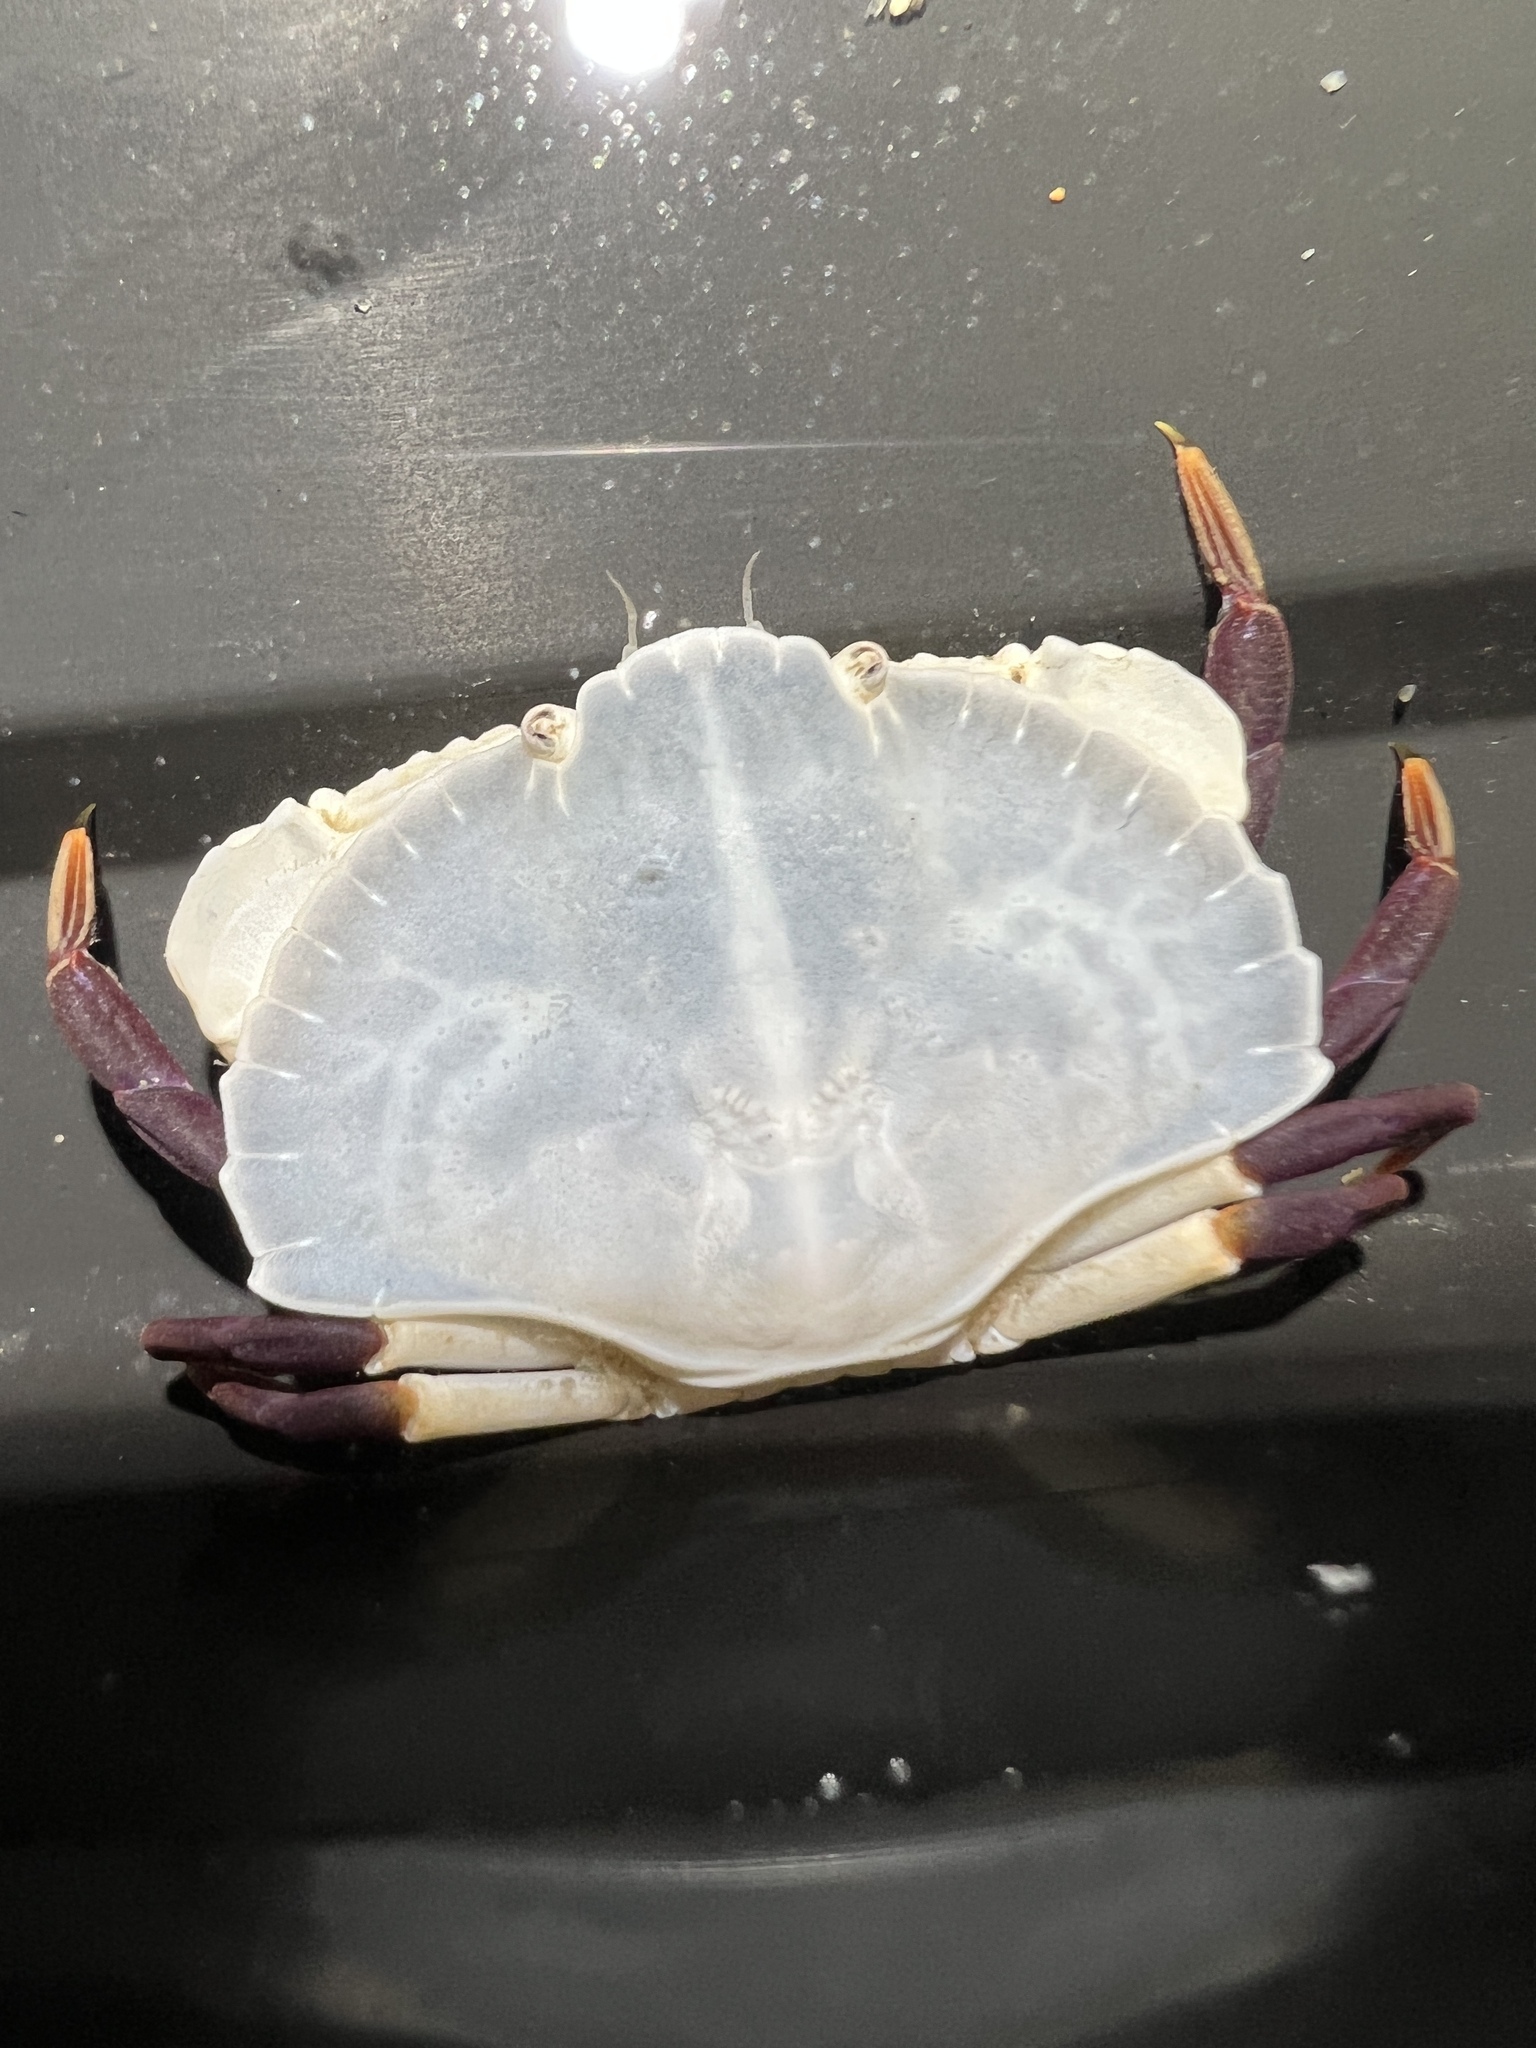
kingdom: Animalia
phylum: Arthropoda
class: Malacostraca
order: Decapoda
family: Cancridae
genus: Cancer
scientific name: Cancer productus
